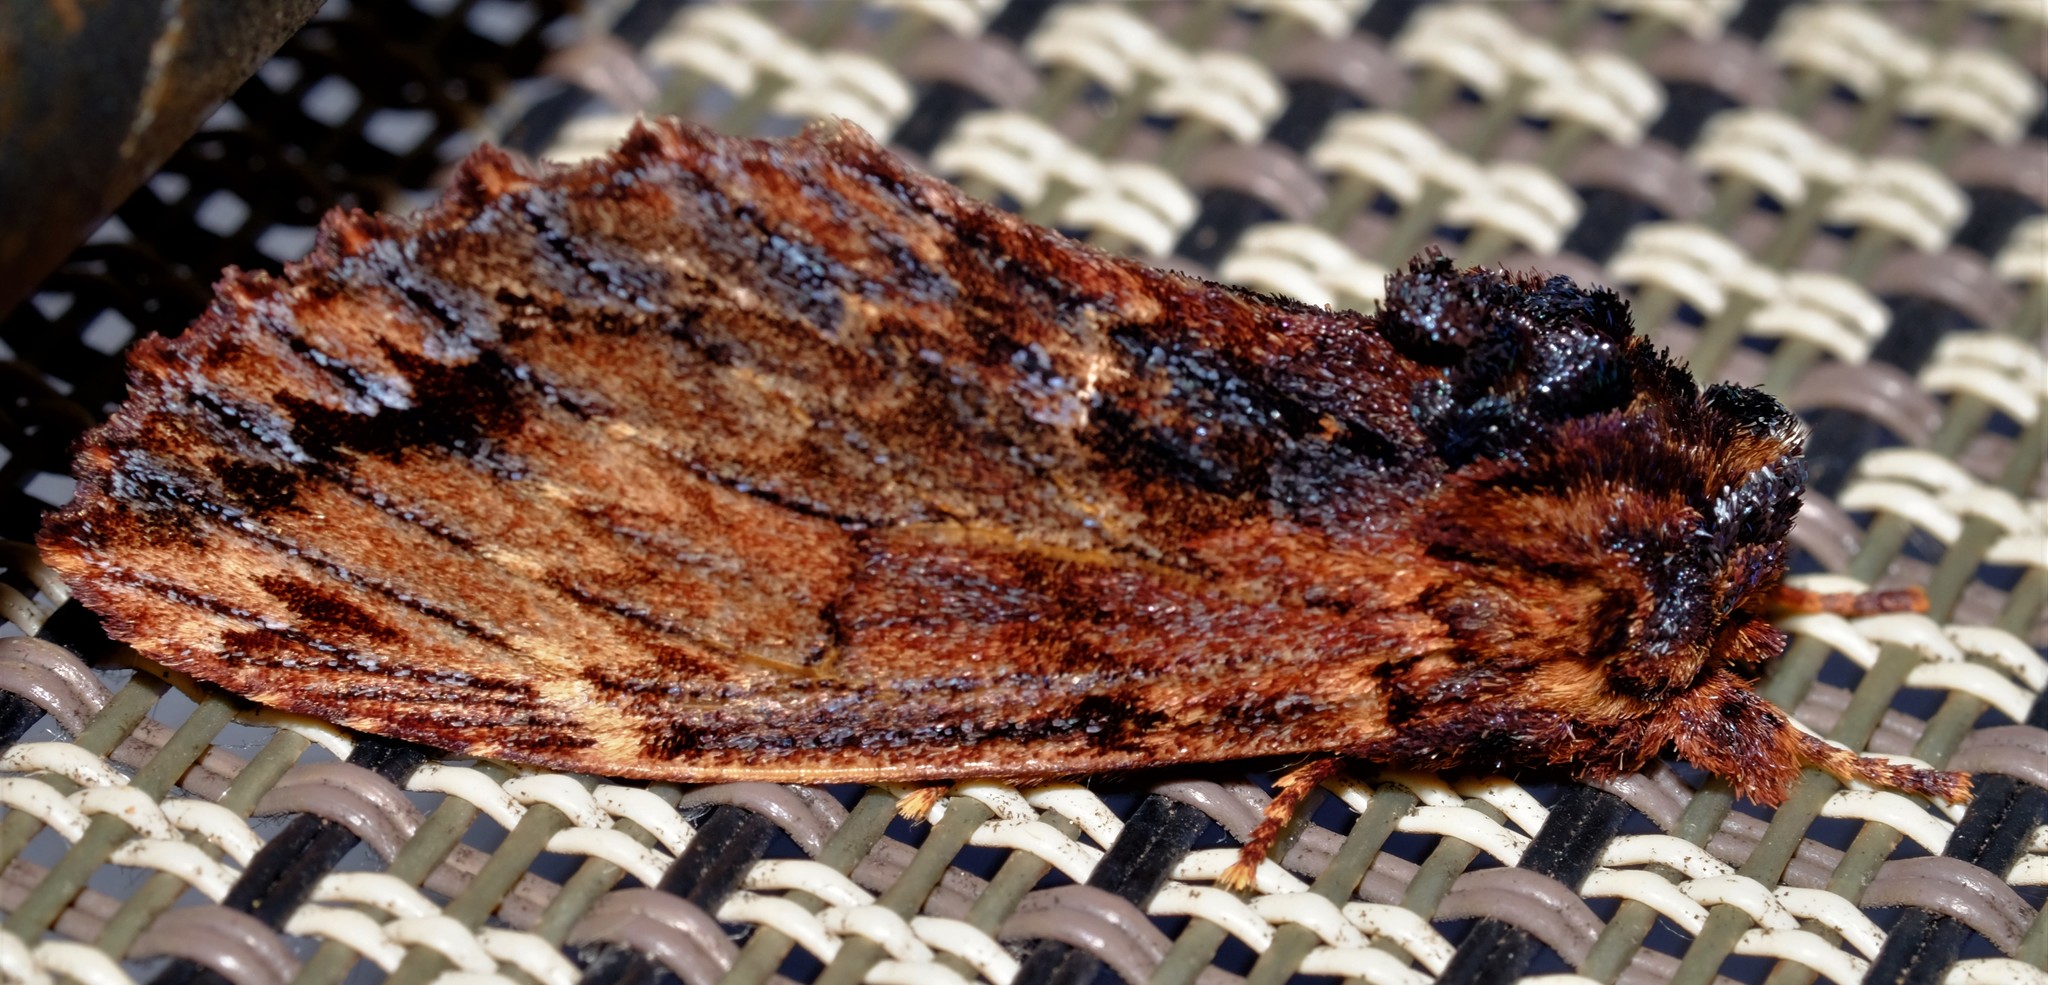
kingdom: Animalia
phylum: Arthropoda
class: Insecta
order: Lepidoptera
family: Notodontidae
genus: Sorama
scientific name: Sorama bicolor
